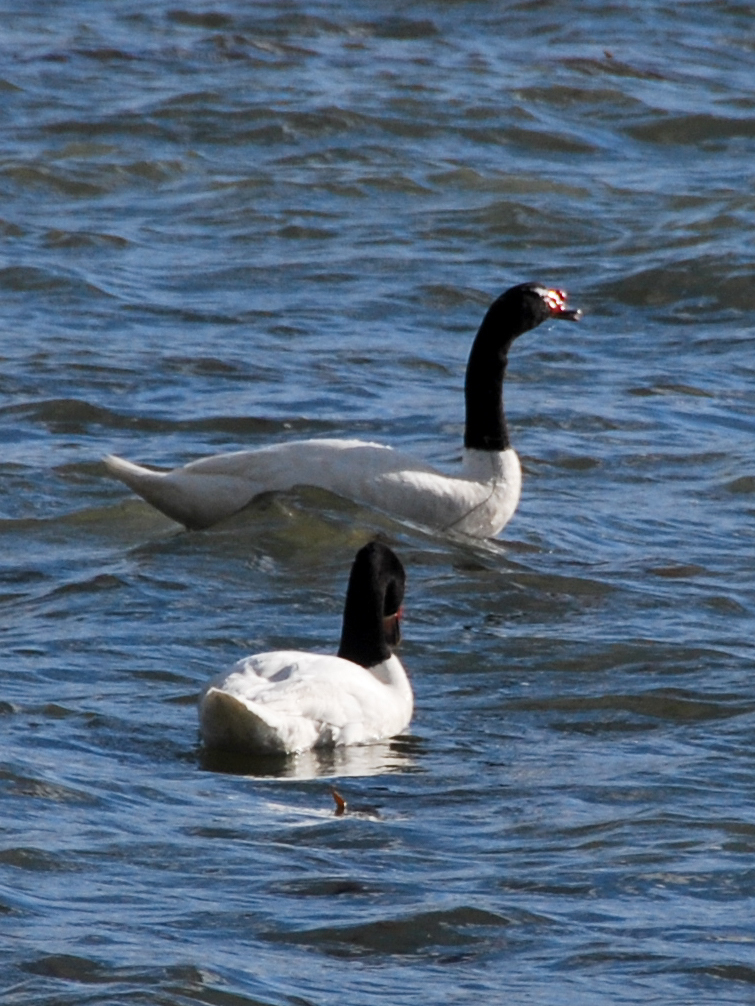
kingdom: Animalia
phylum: Chordata
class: Aves
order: Anseriformes
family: Anatidae
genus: Cygnus
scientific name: Cygnus melancoryphus
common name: Black-necked swan
